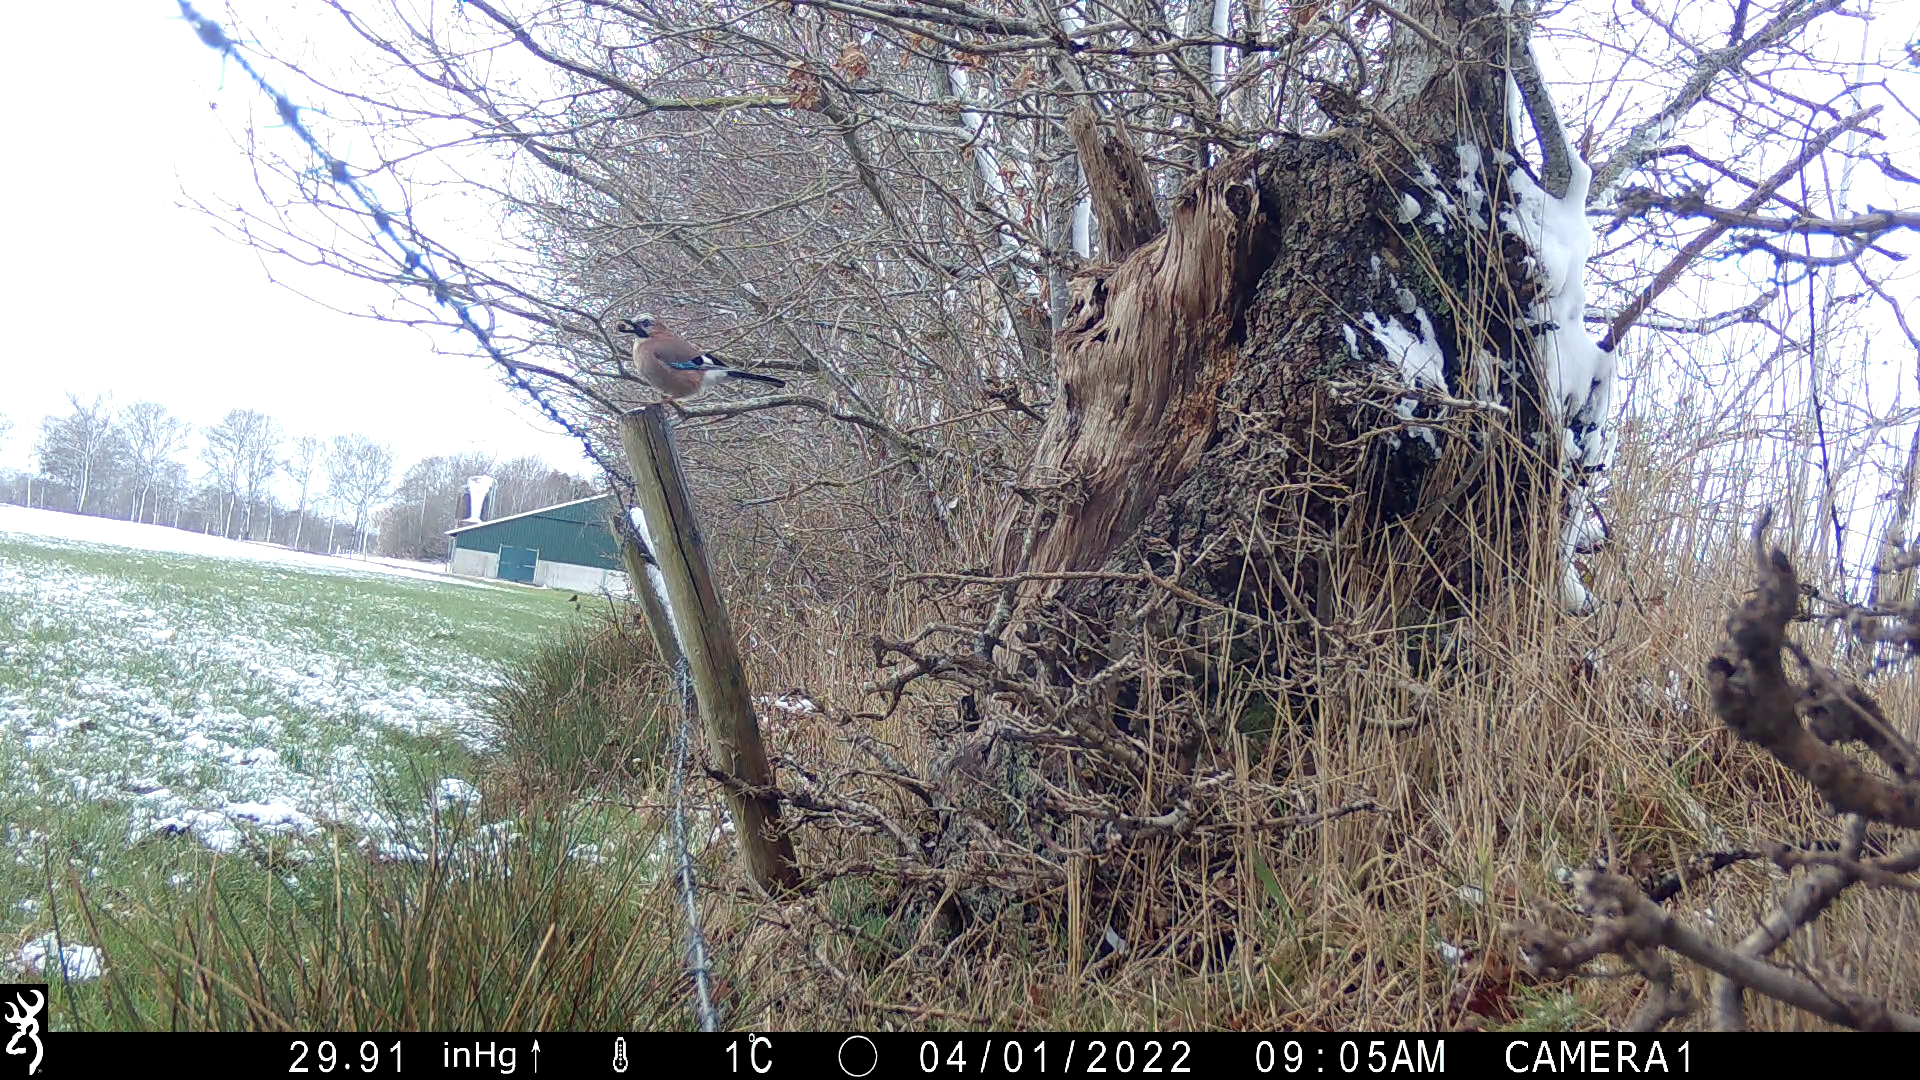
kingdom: Animalia
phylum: Chordata
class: Aves
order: Passeriformes
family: Corvidae
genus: Garrulus
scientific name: Garrulus glandarius
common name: Eurasian jay
